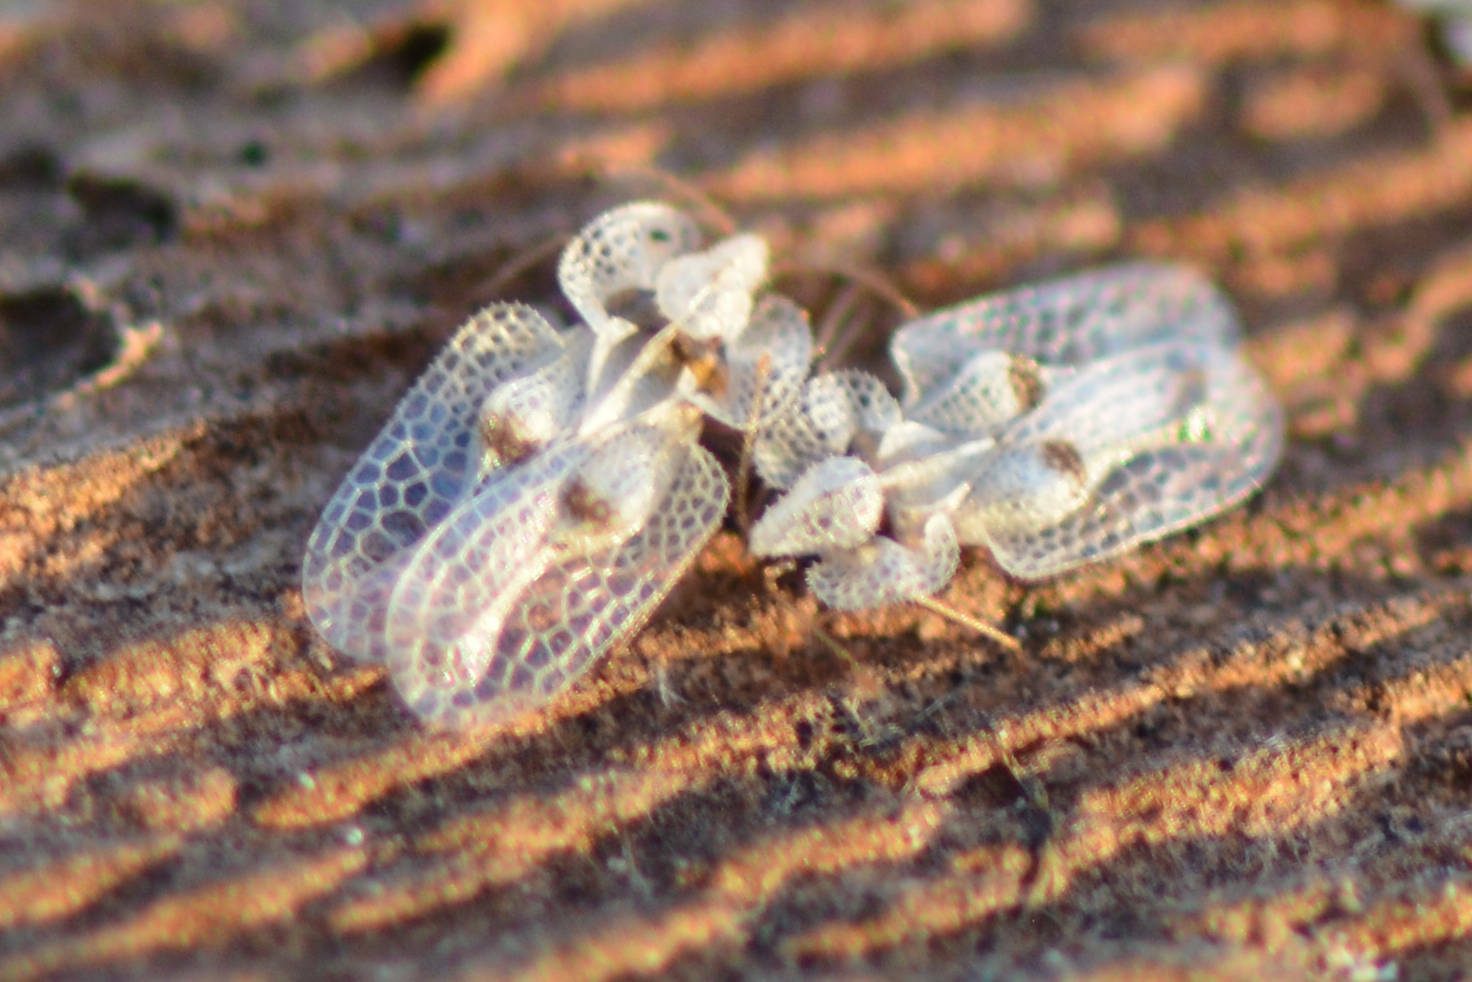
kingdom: Animalia
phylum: Arthropoda
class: Insecta
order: Hemiptera
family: Tingidae
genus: Corythucha
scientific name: Corythucha ciliata
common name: Sycamore lace bug
